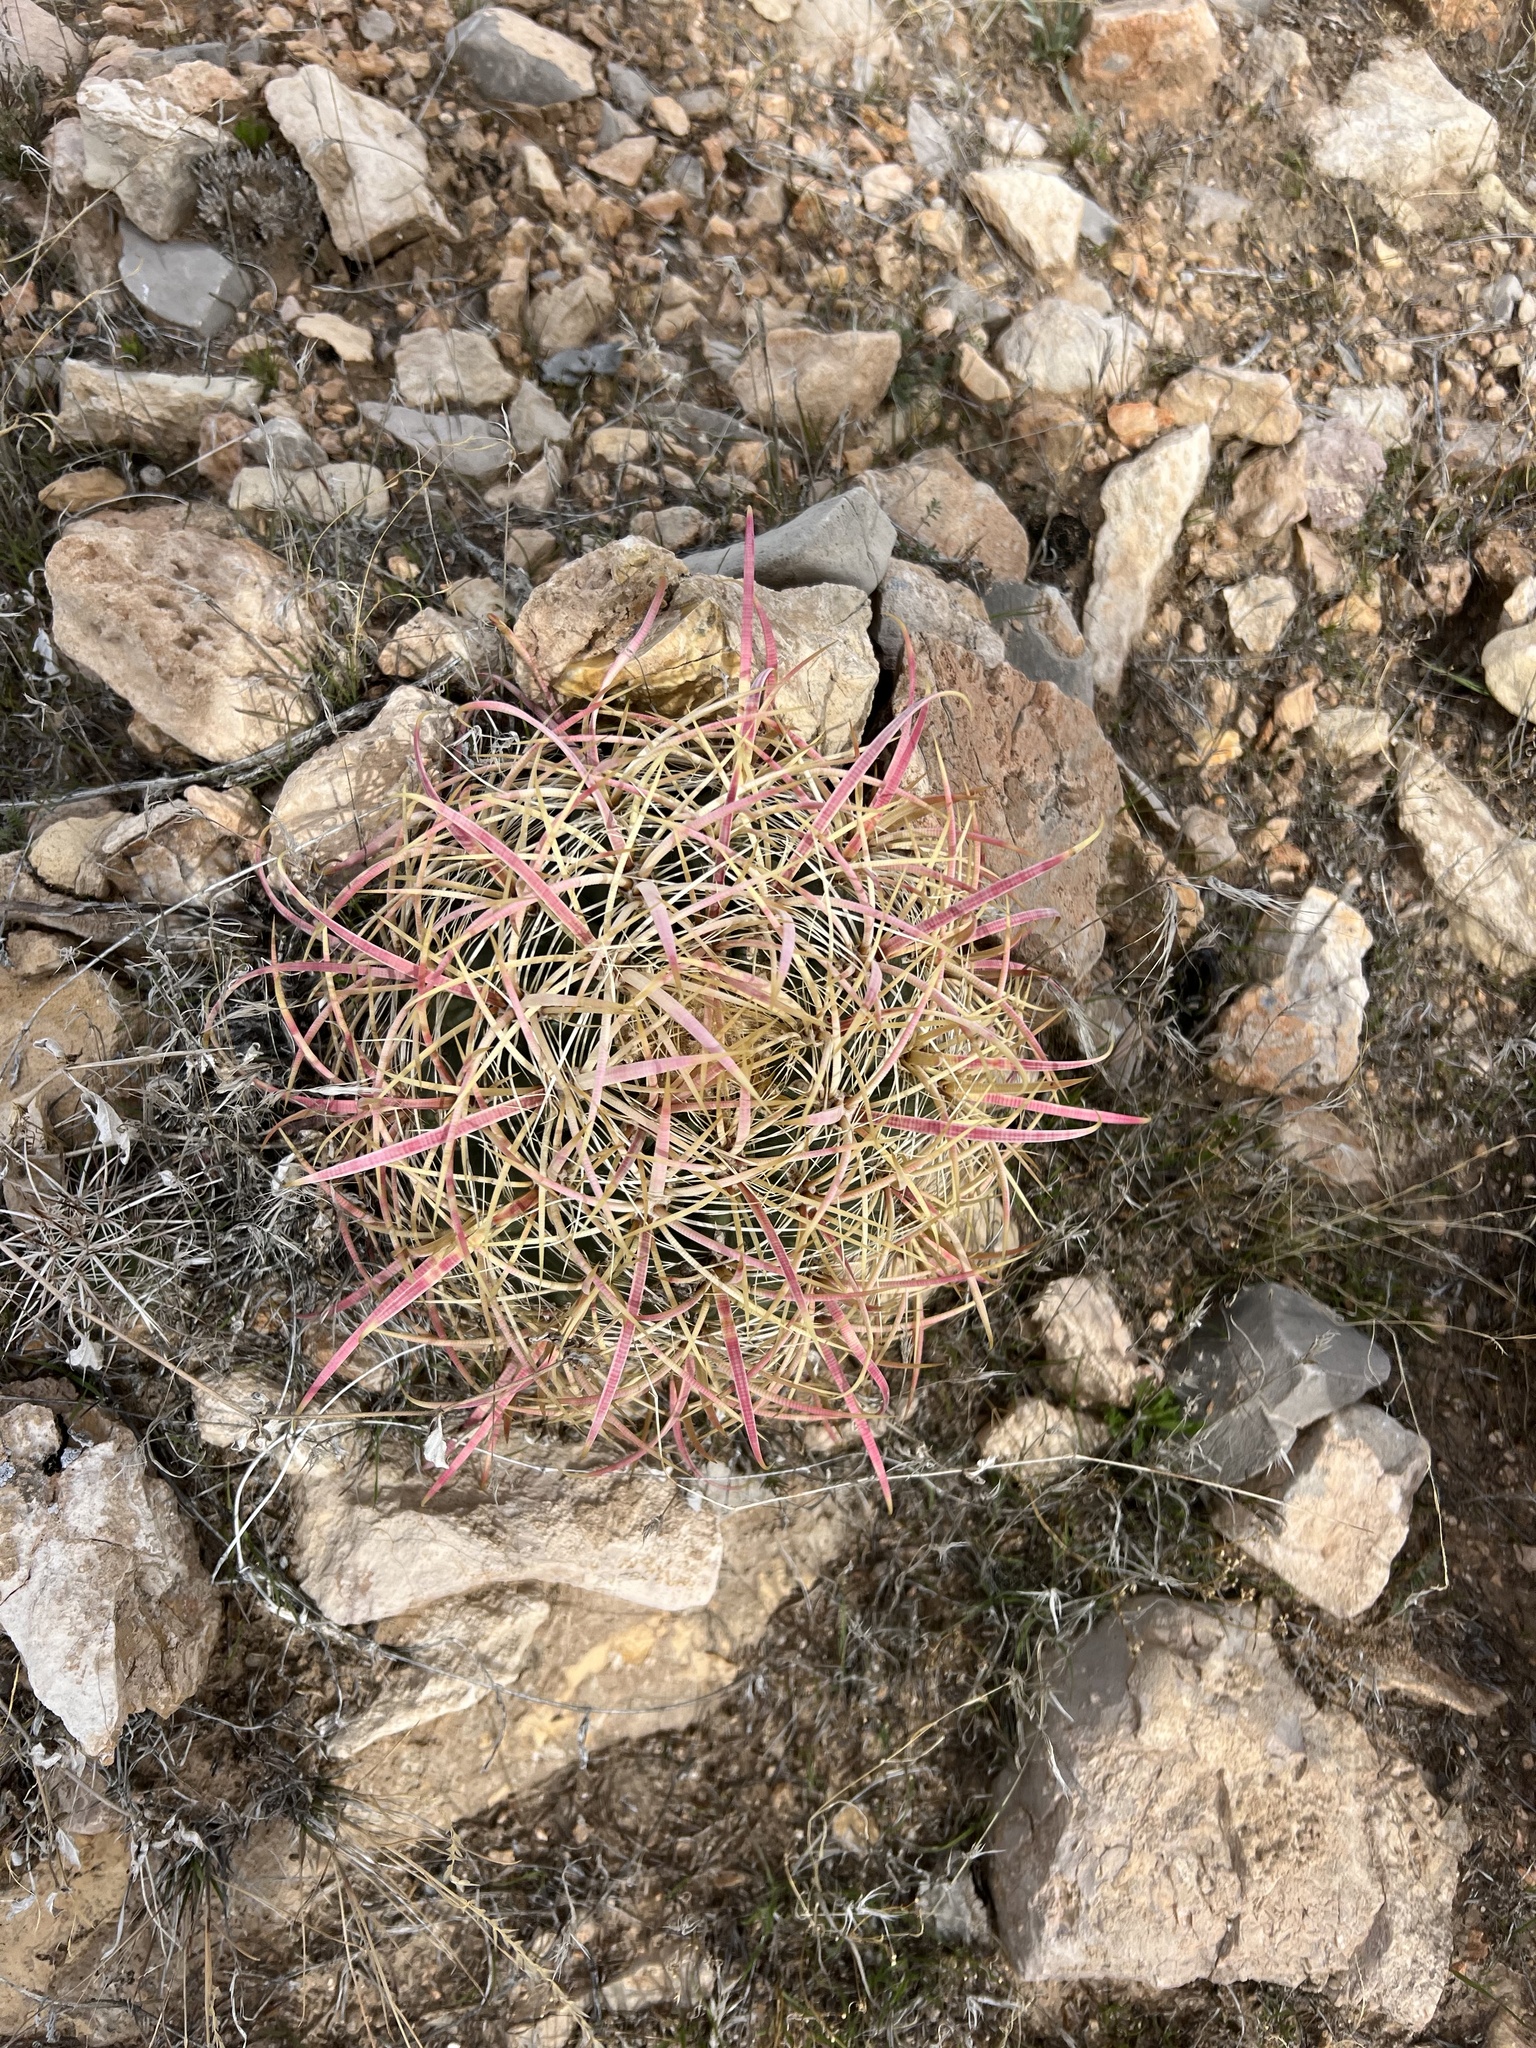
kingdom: Plantae
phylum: Tracheophyta
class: Magnoliopsida
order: Caryophyllales
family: Cactaceae
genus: Ferocactus
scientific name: Ferocactus cylindraceus
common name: California barrel cactus
